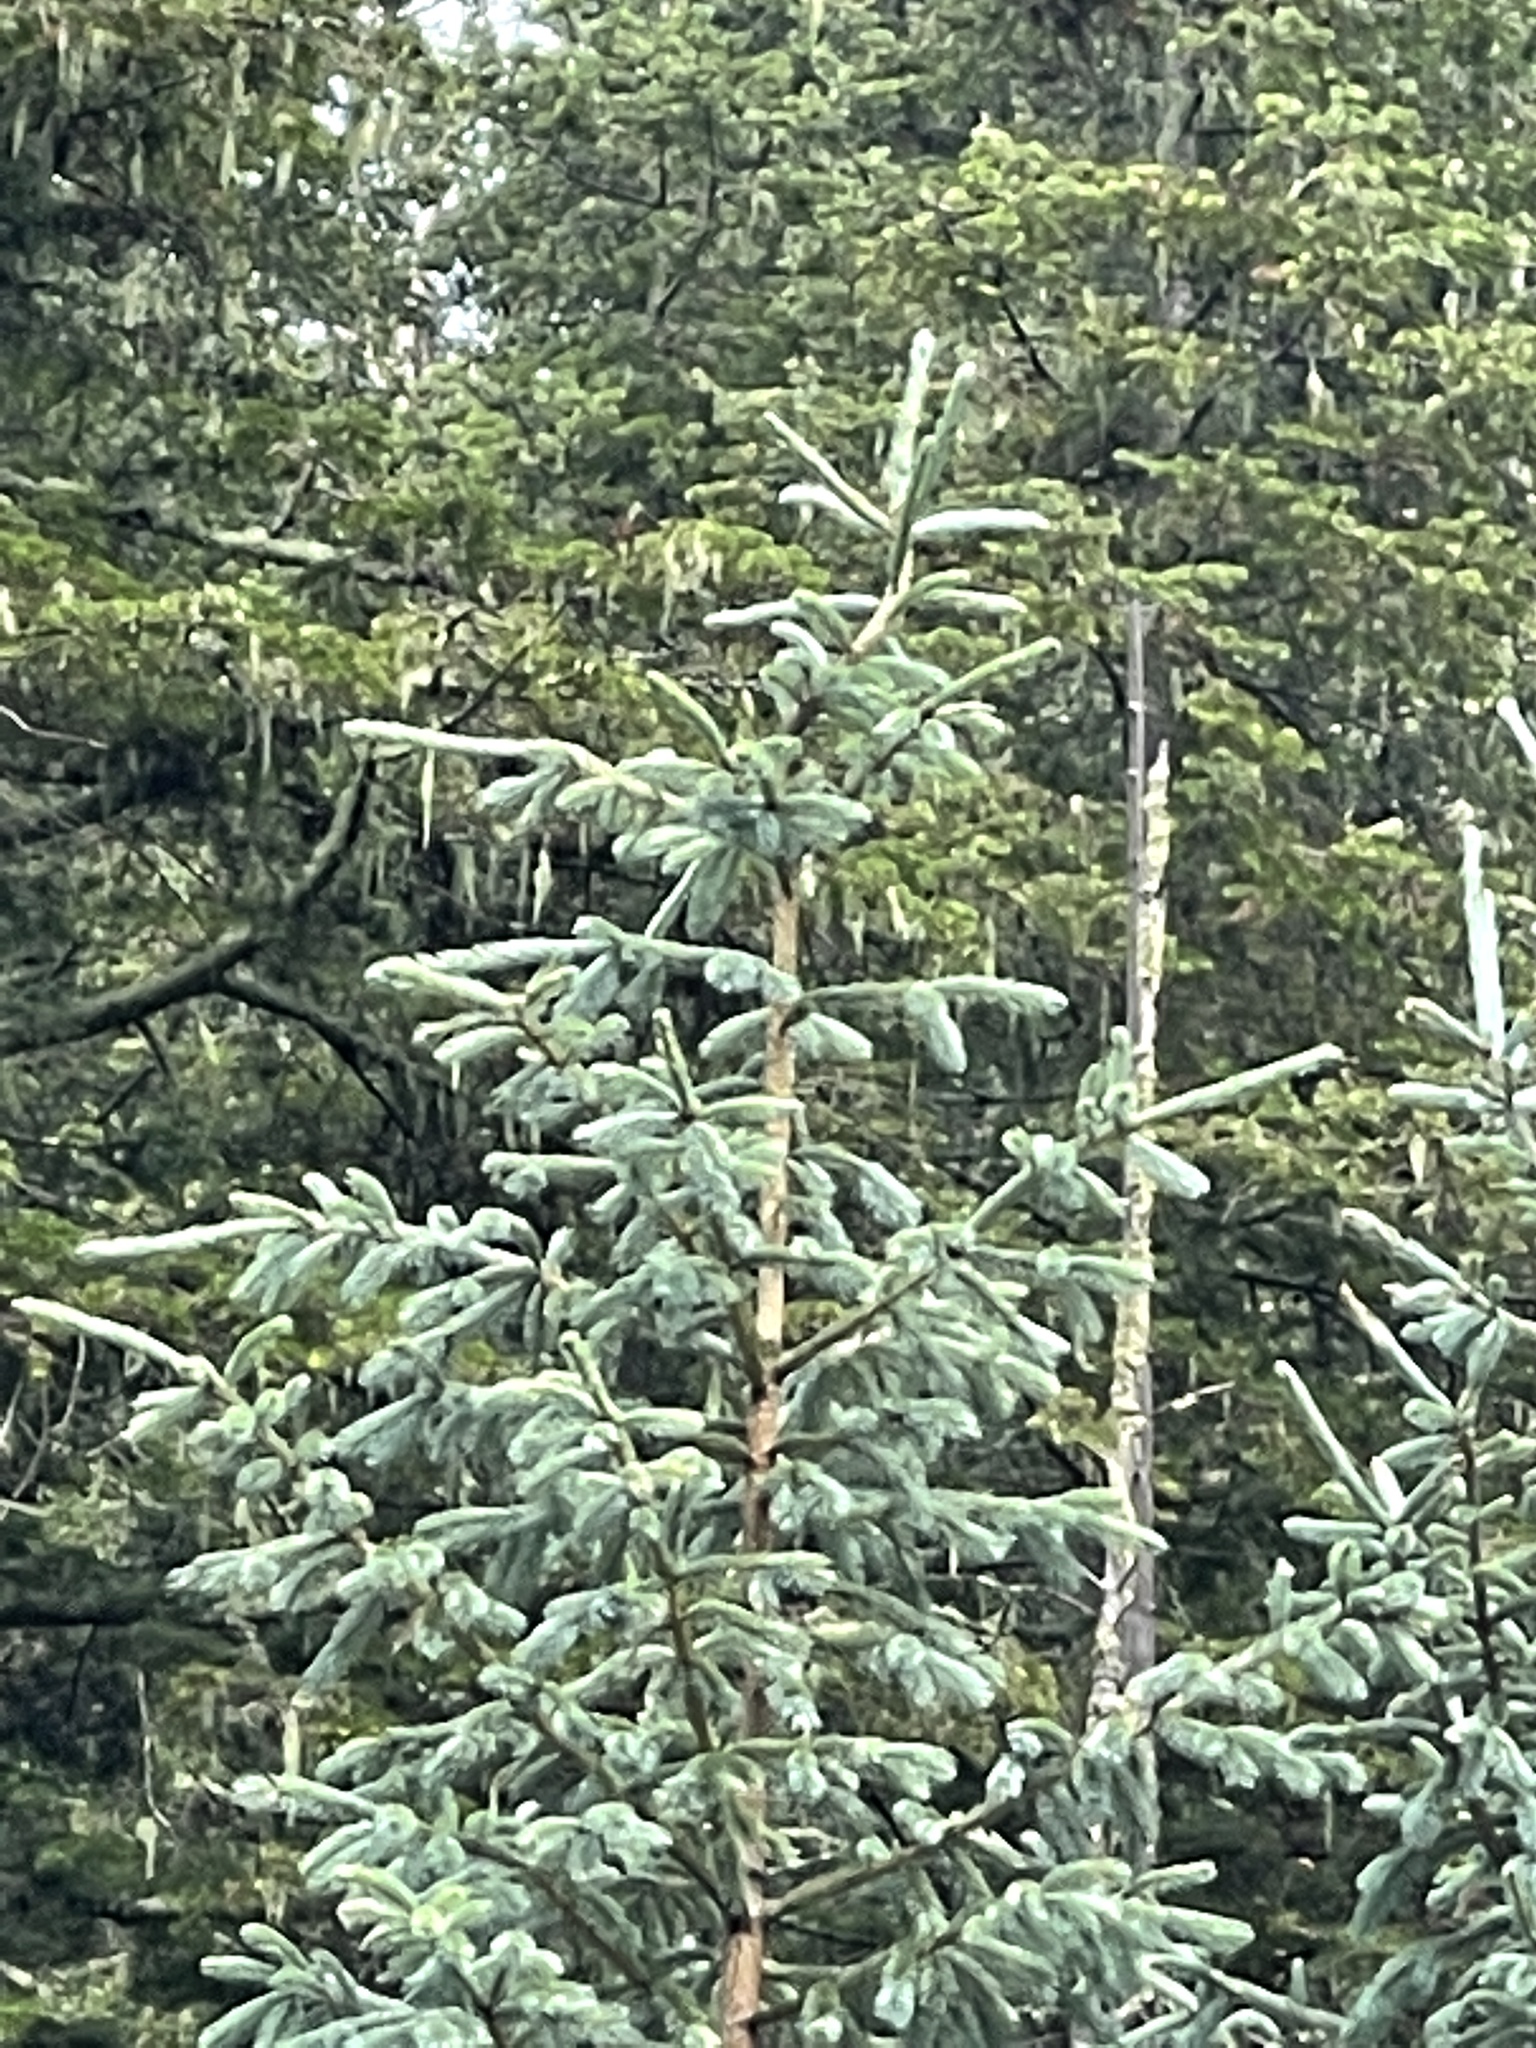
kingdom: Plantae
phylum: Tracheophyta
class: Pinopsida
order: Pinales
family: Pinaceae
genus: Picea
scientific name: Picea engelmannii
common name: Engelmann spruce
